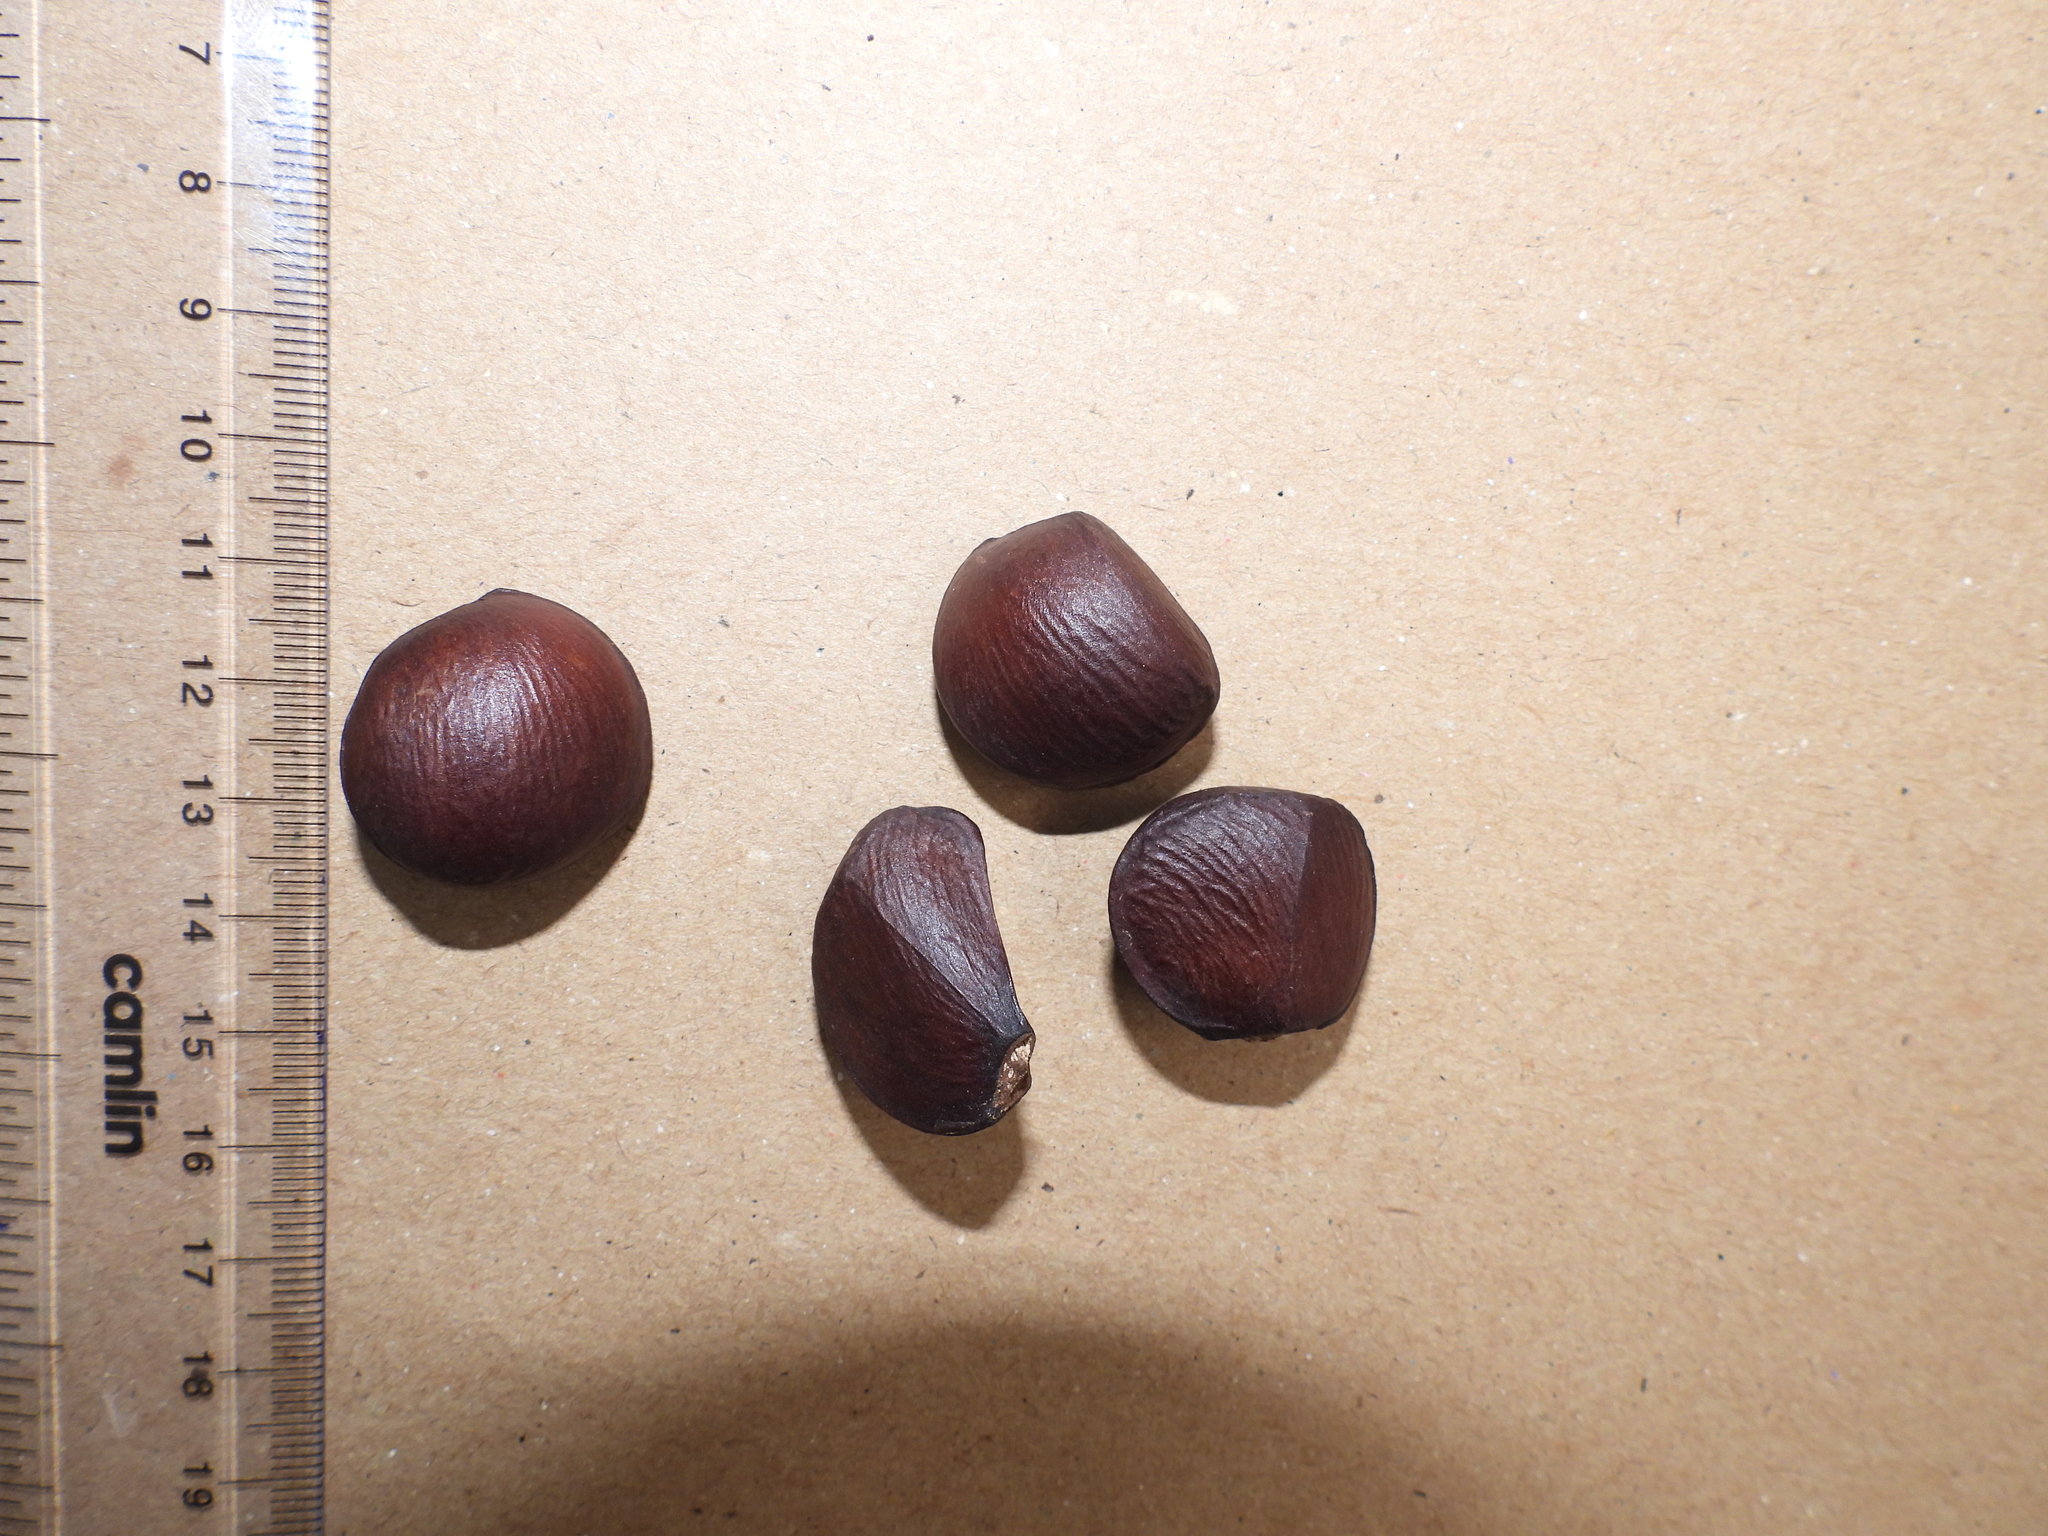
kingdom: Plantae
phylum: Tracheophyta
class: Magnoliopsida
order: Malpighiales
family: Calophyllaceae
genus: Mesua
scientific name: Mesua ferrea
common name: Mesua
